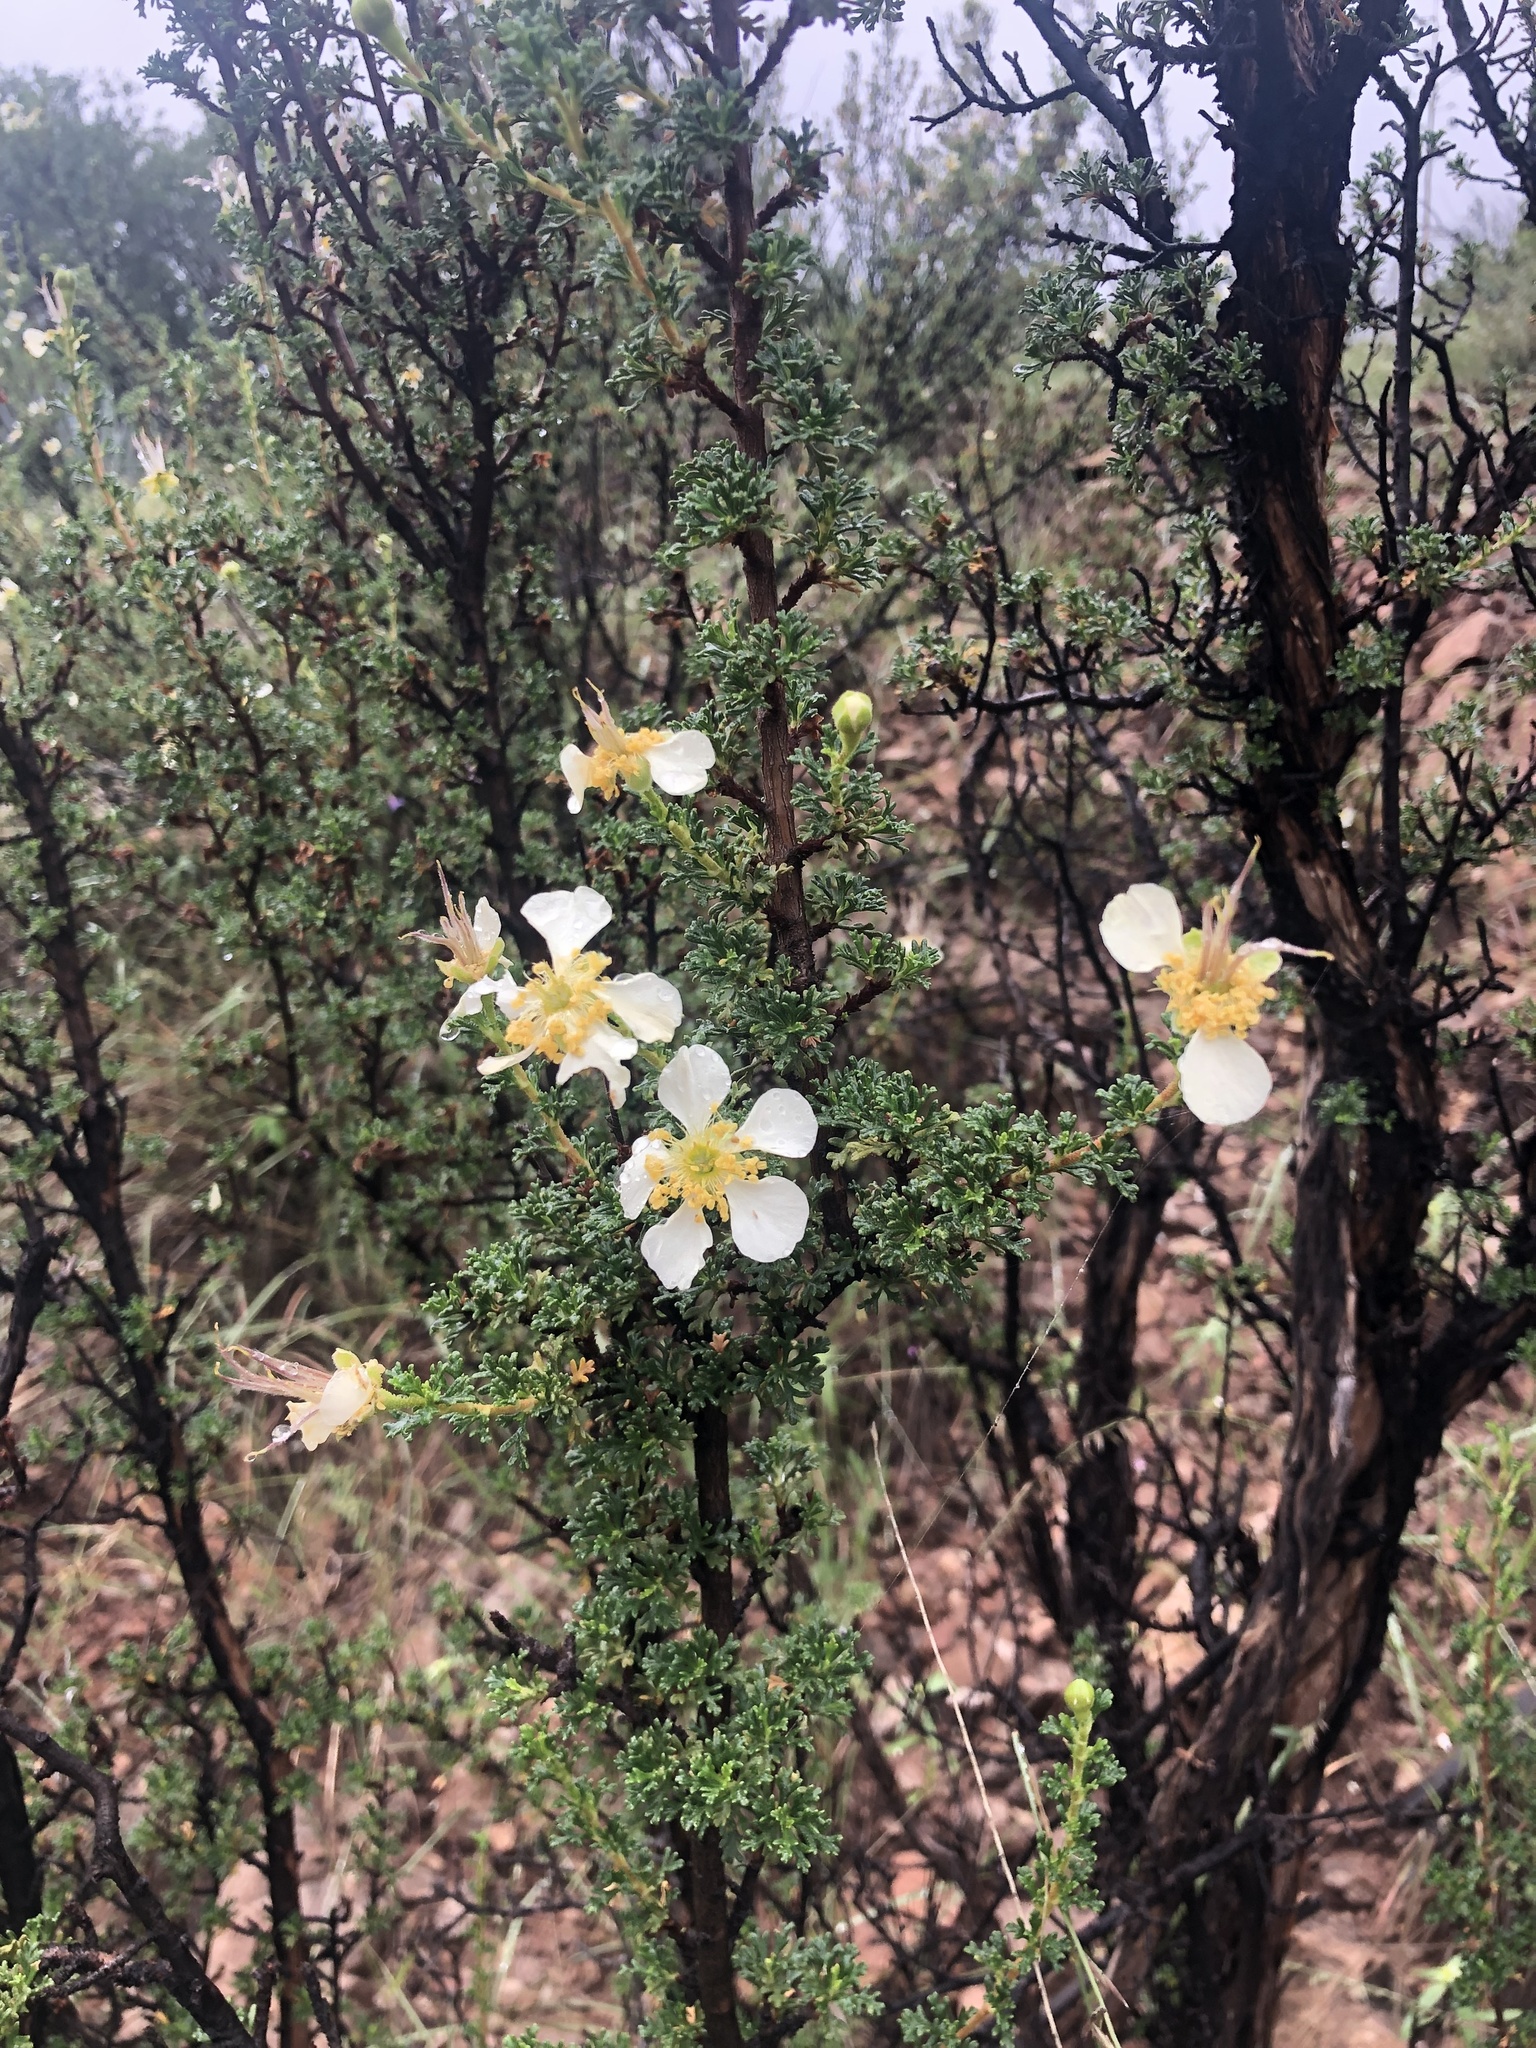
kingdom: Plantae
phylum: Tracheophyta
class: Magnoliopsida
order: Rosales
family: Rosaceae
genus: Fallugia
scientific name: Fallugia paradoxa
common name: Apache-plume
